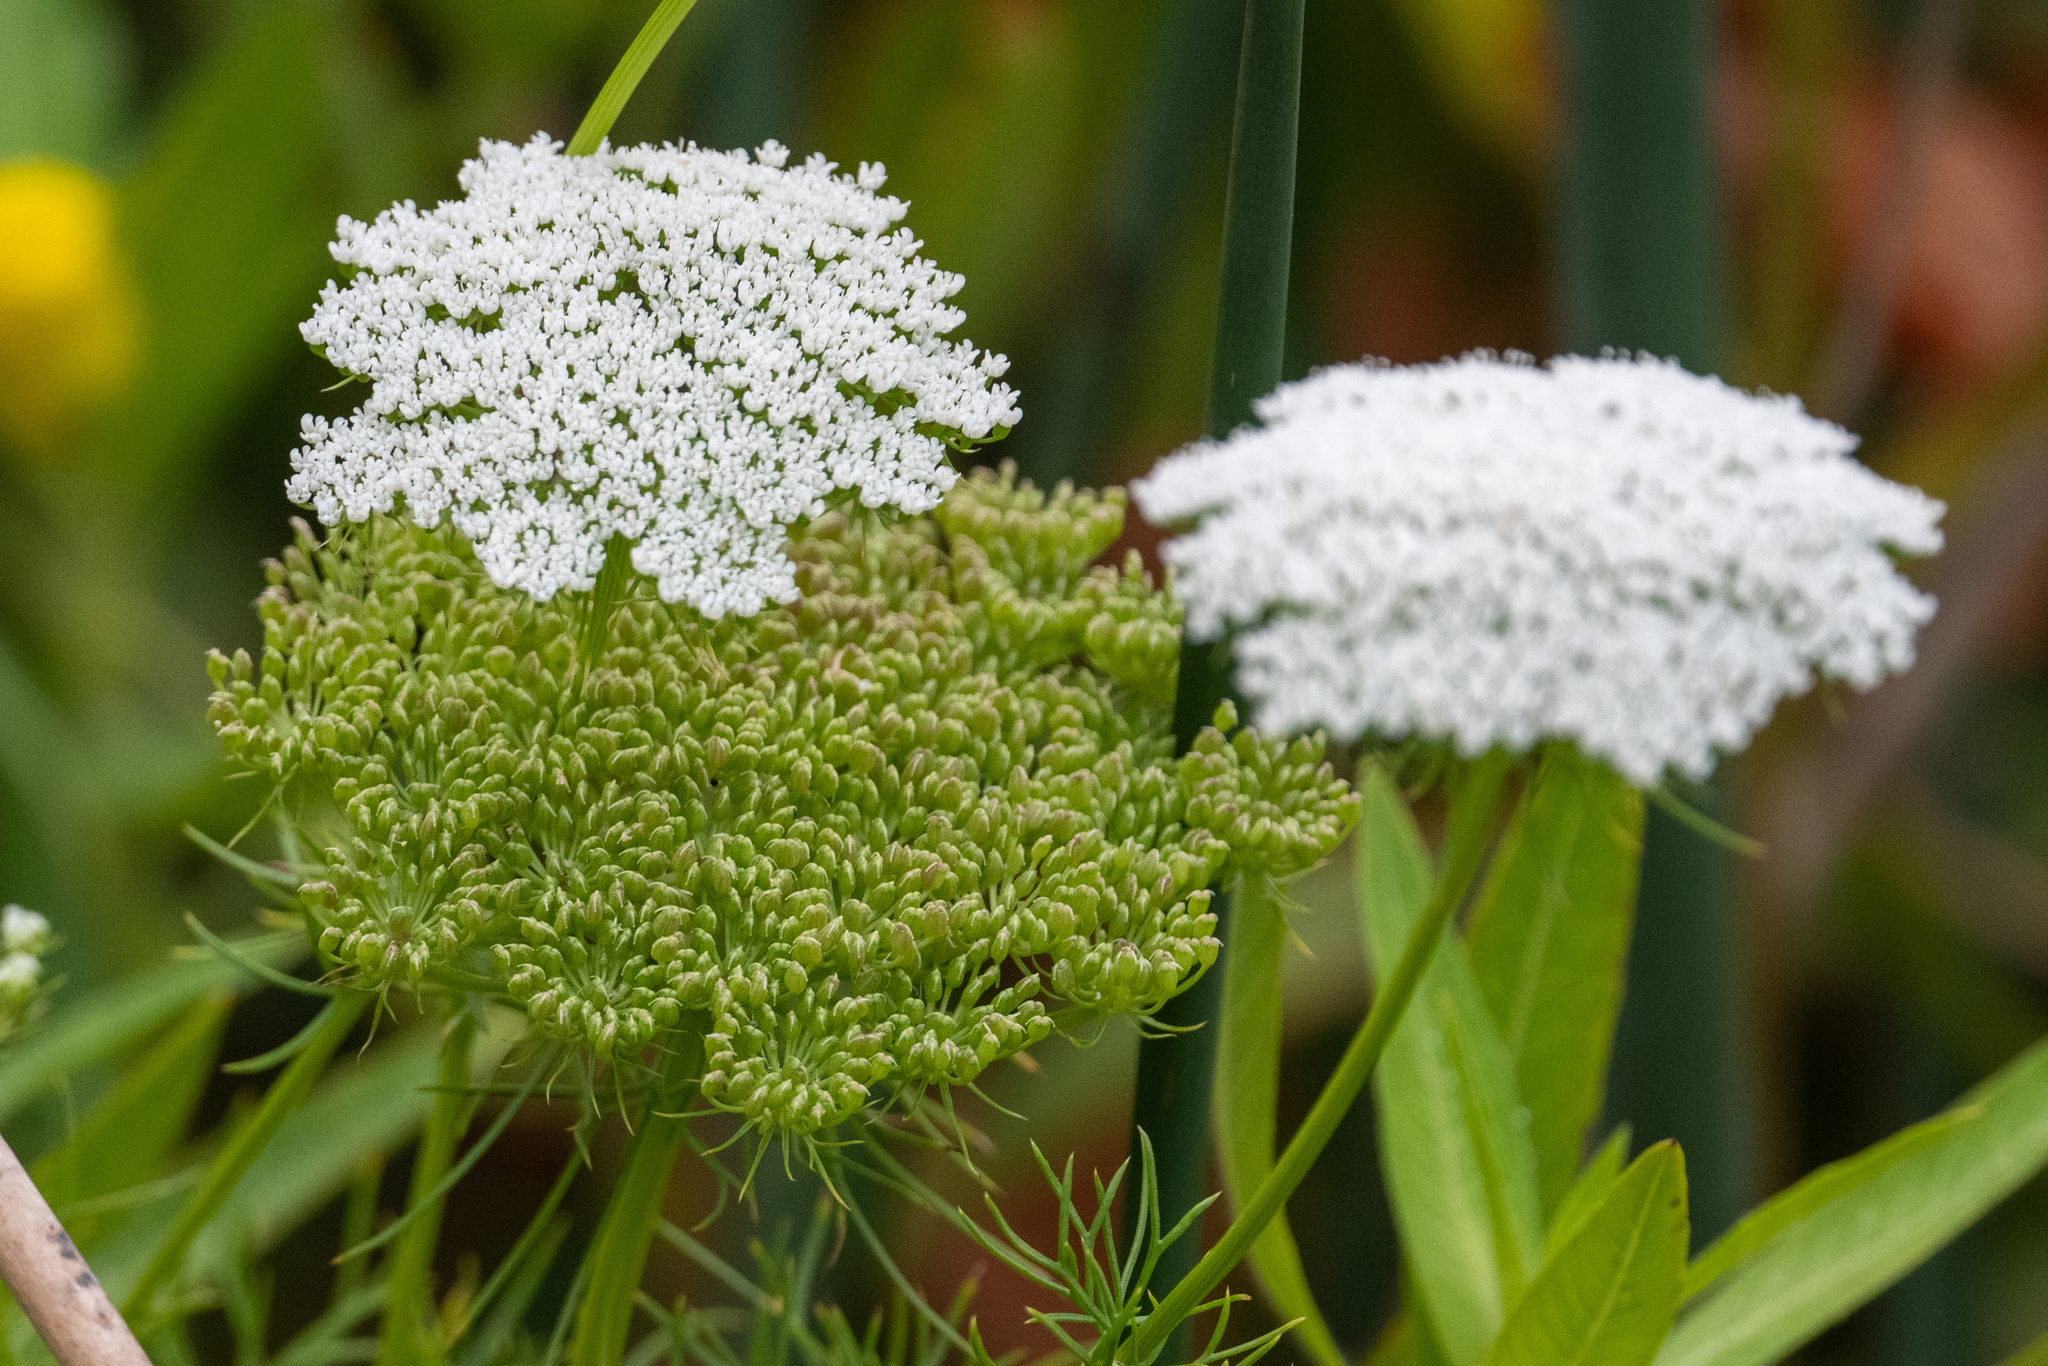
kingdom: Plantae
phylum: Tracheophyta
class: Magnoliopsida
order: Apiales
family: Apiaceae
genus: Visnaga
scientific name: Visnaga daucoides
